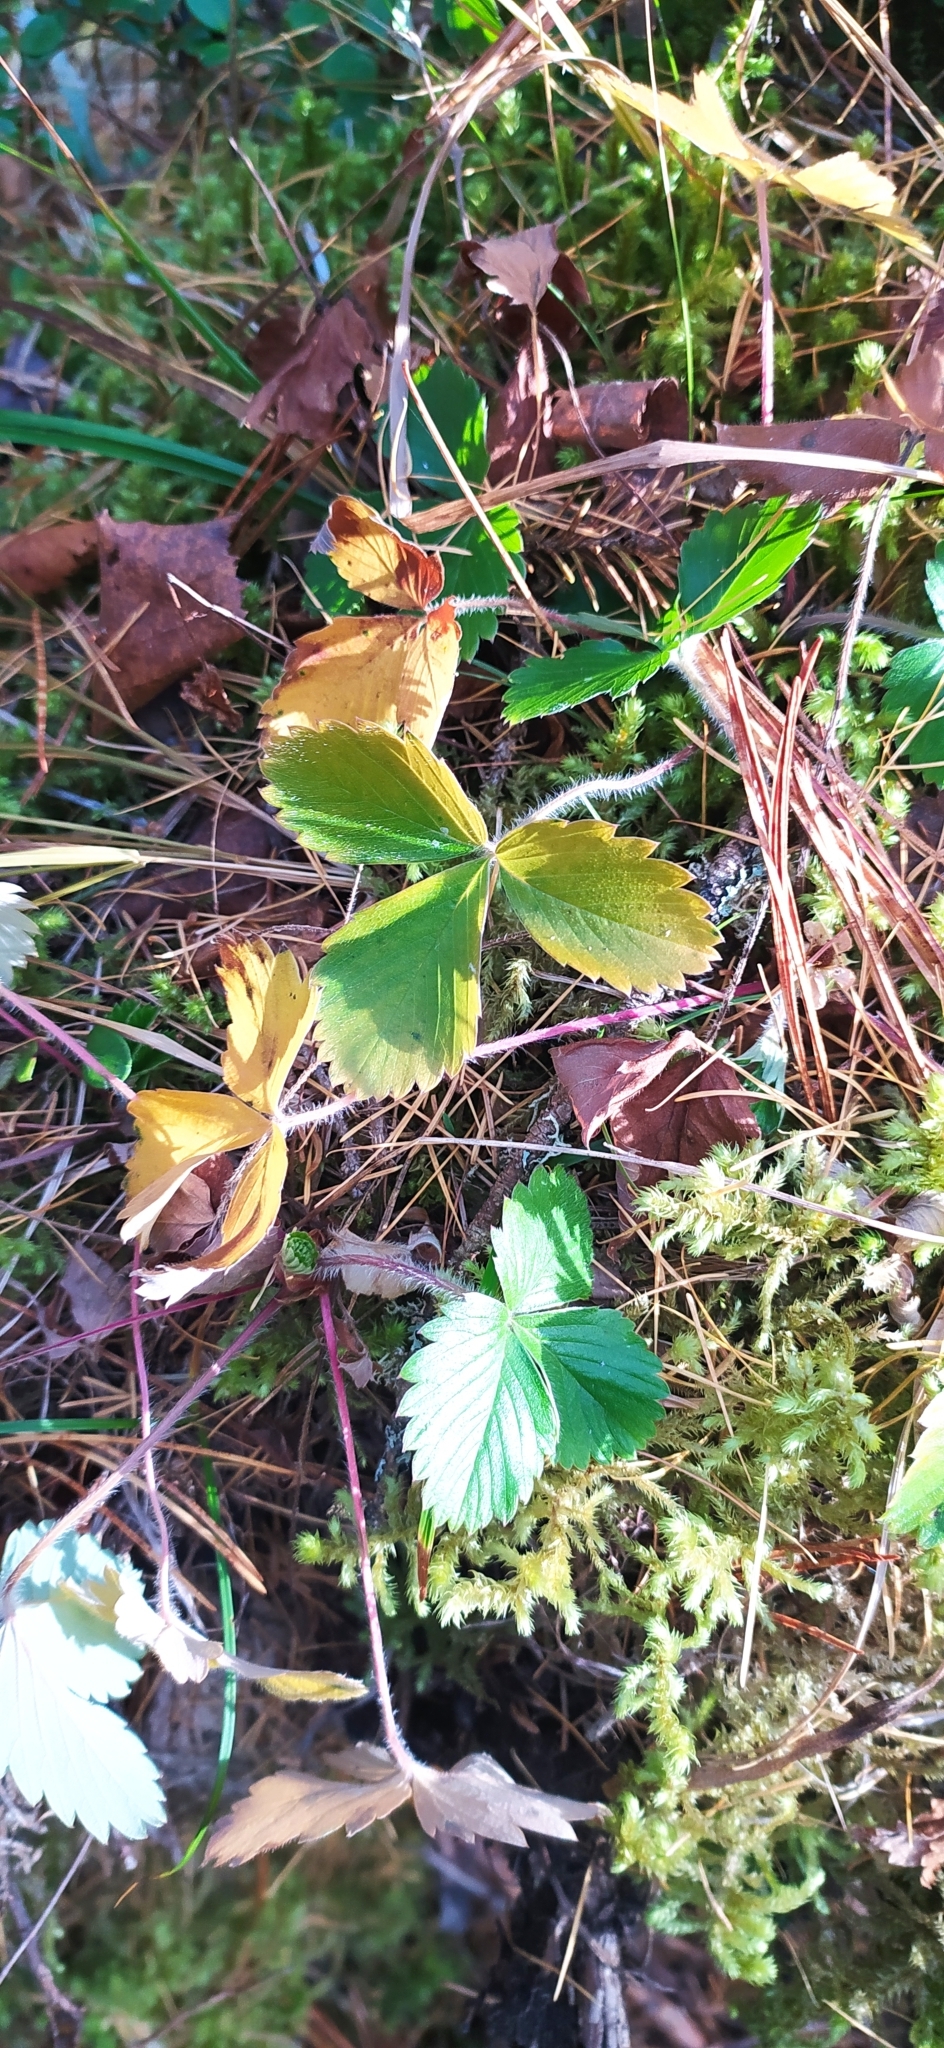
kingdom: Plantae
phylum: Tracheophyta
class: Magnoliopsida
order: Rosales
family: Rosaceae
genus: Fragaria
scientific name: Fragaria vesca
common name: Wild strawberry
